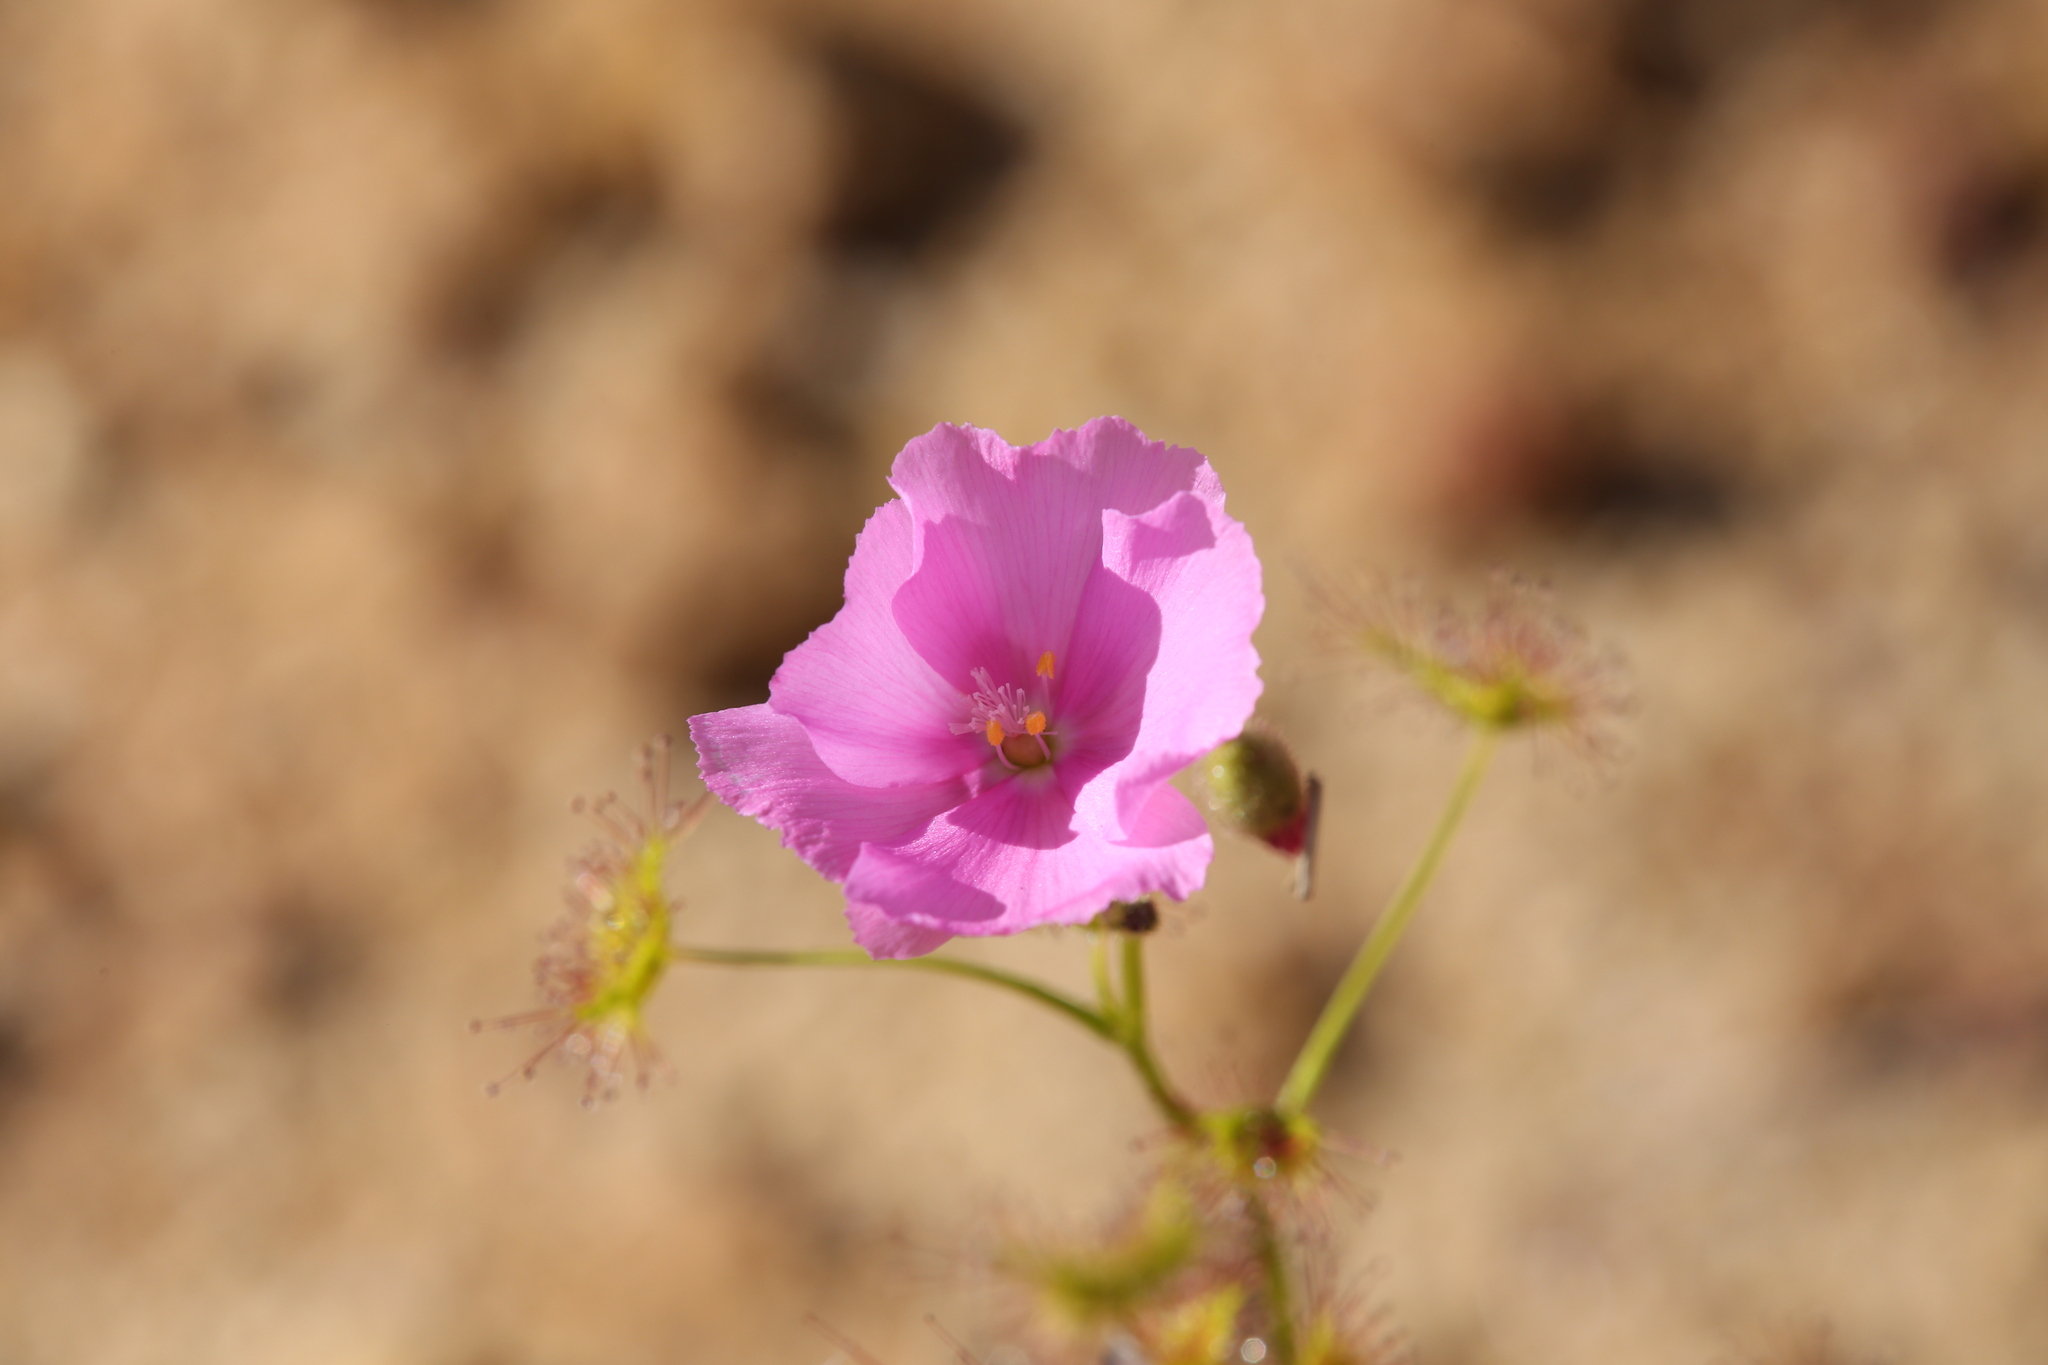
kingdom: Plantae
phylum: Tracheophyta
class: Magnoliopsida
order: Caryophyllales
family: Droseraceae
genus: Drosera
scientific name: Drosera neesii
